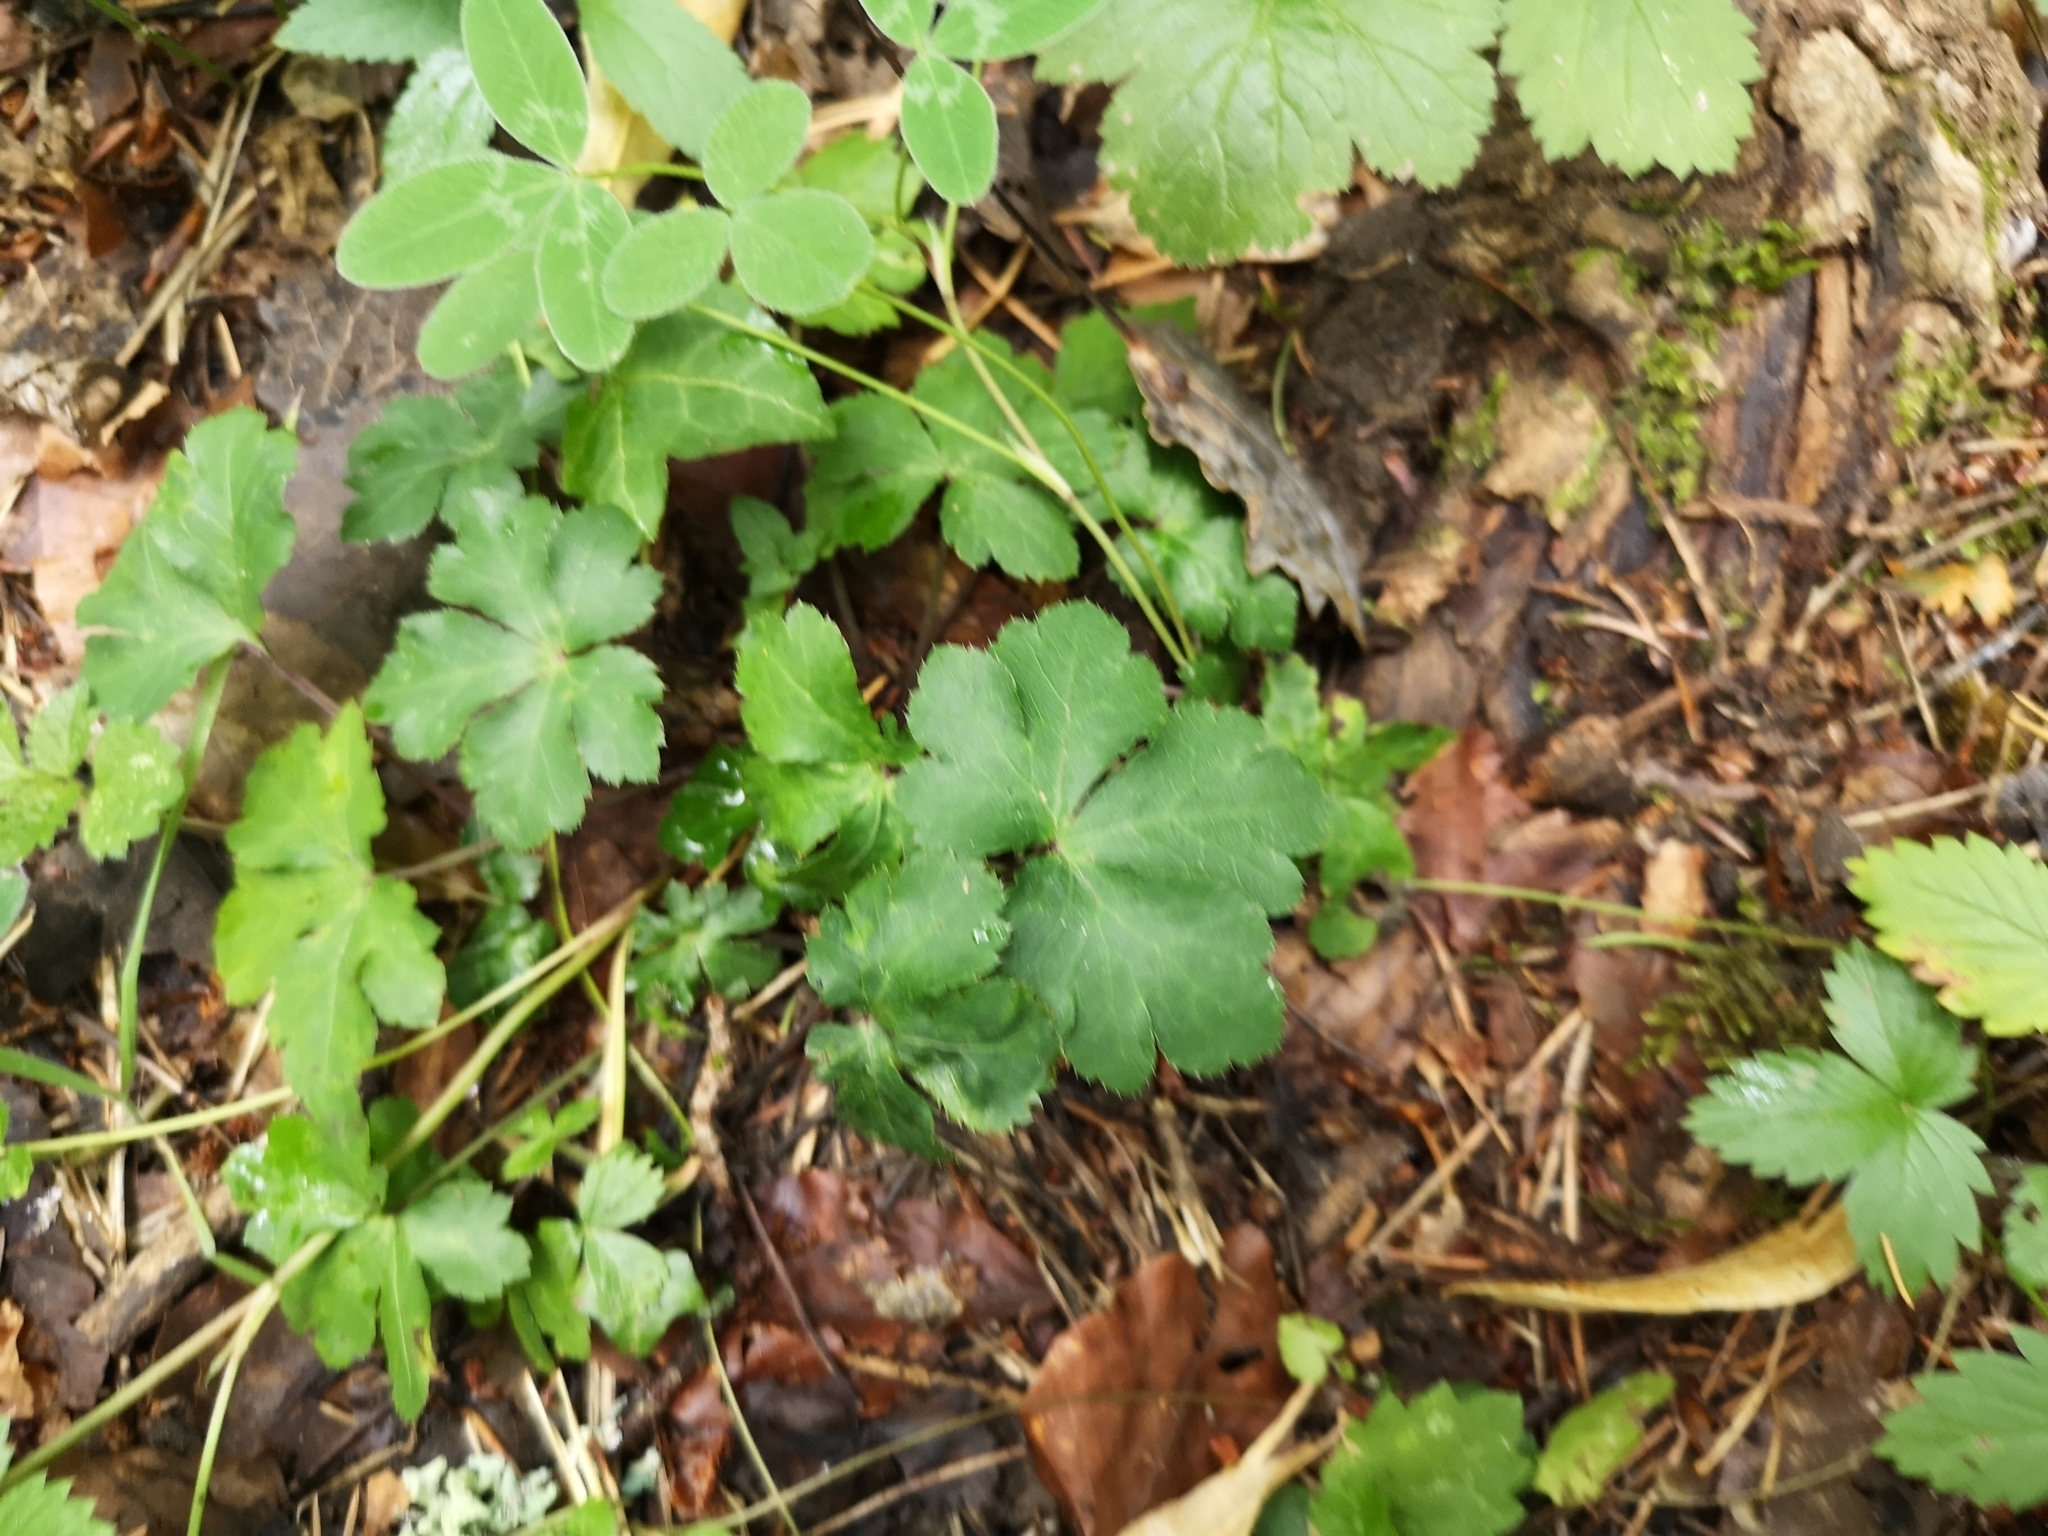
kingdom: Plantae
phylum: Tracheophyta
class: Magnoliopsida
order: Apiales
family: Apiaceae
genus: Sanicula
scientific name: Sanicula europaea
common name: Sanicle
